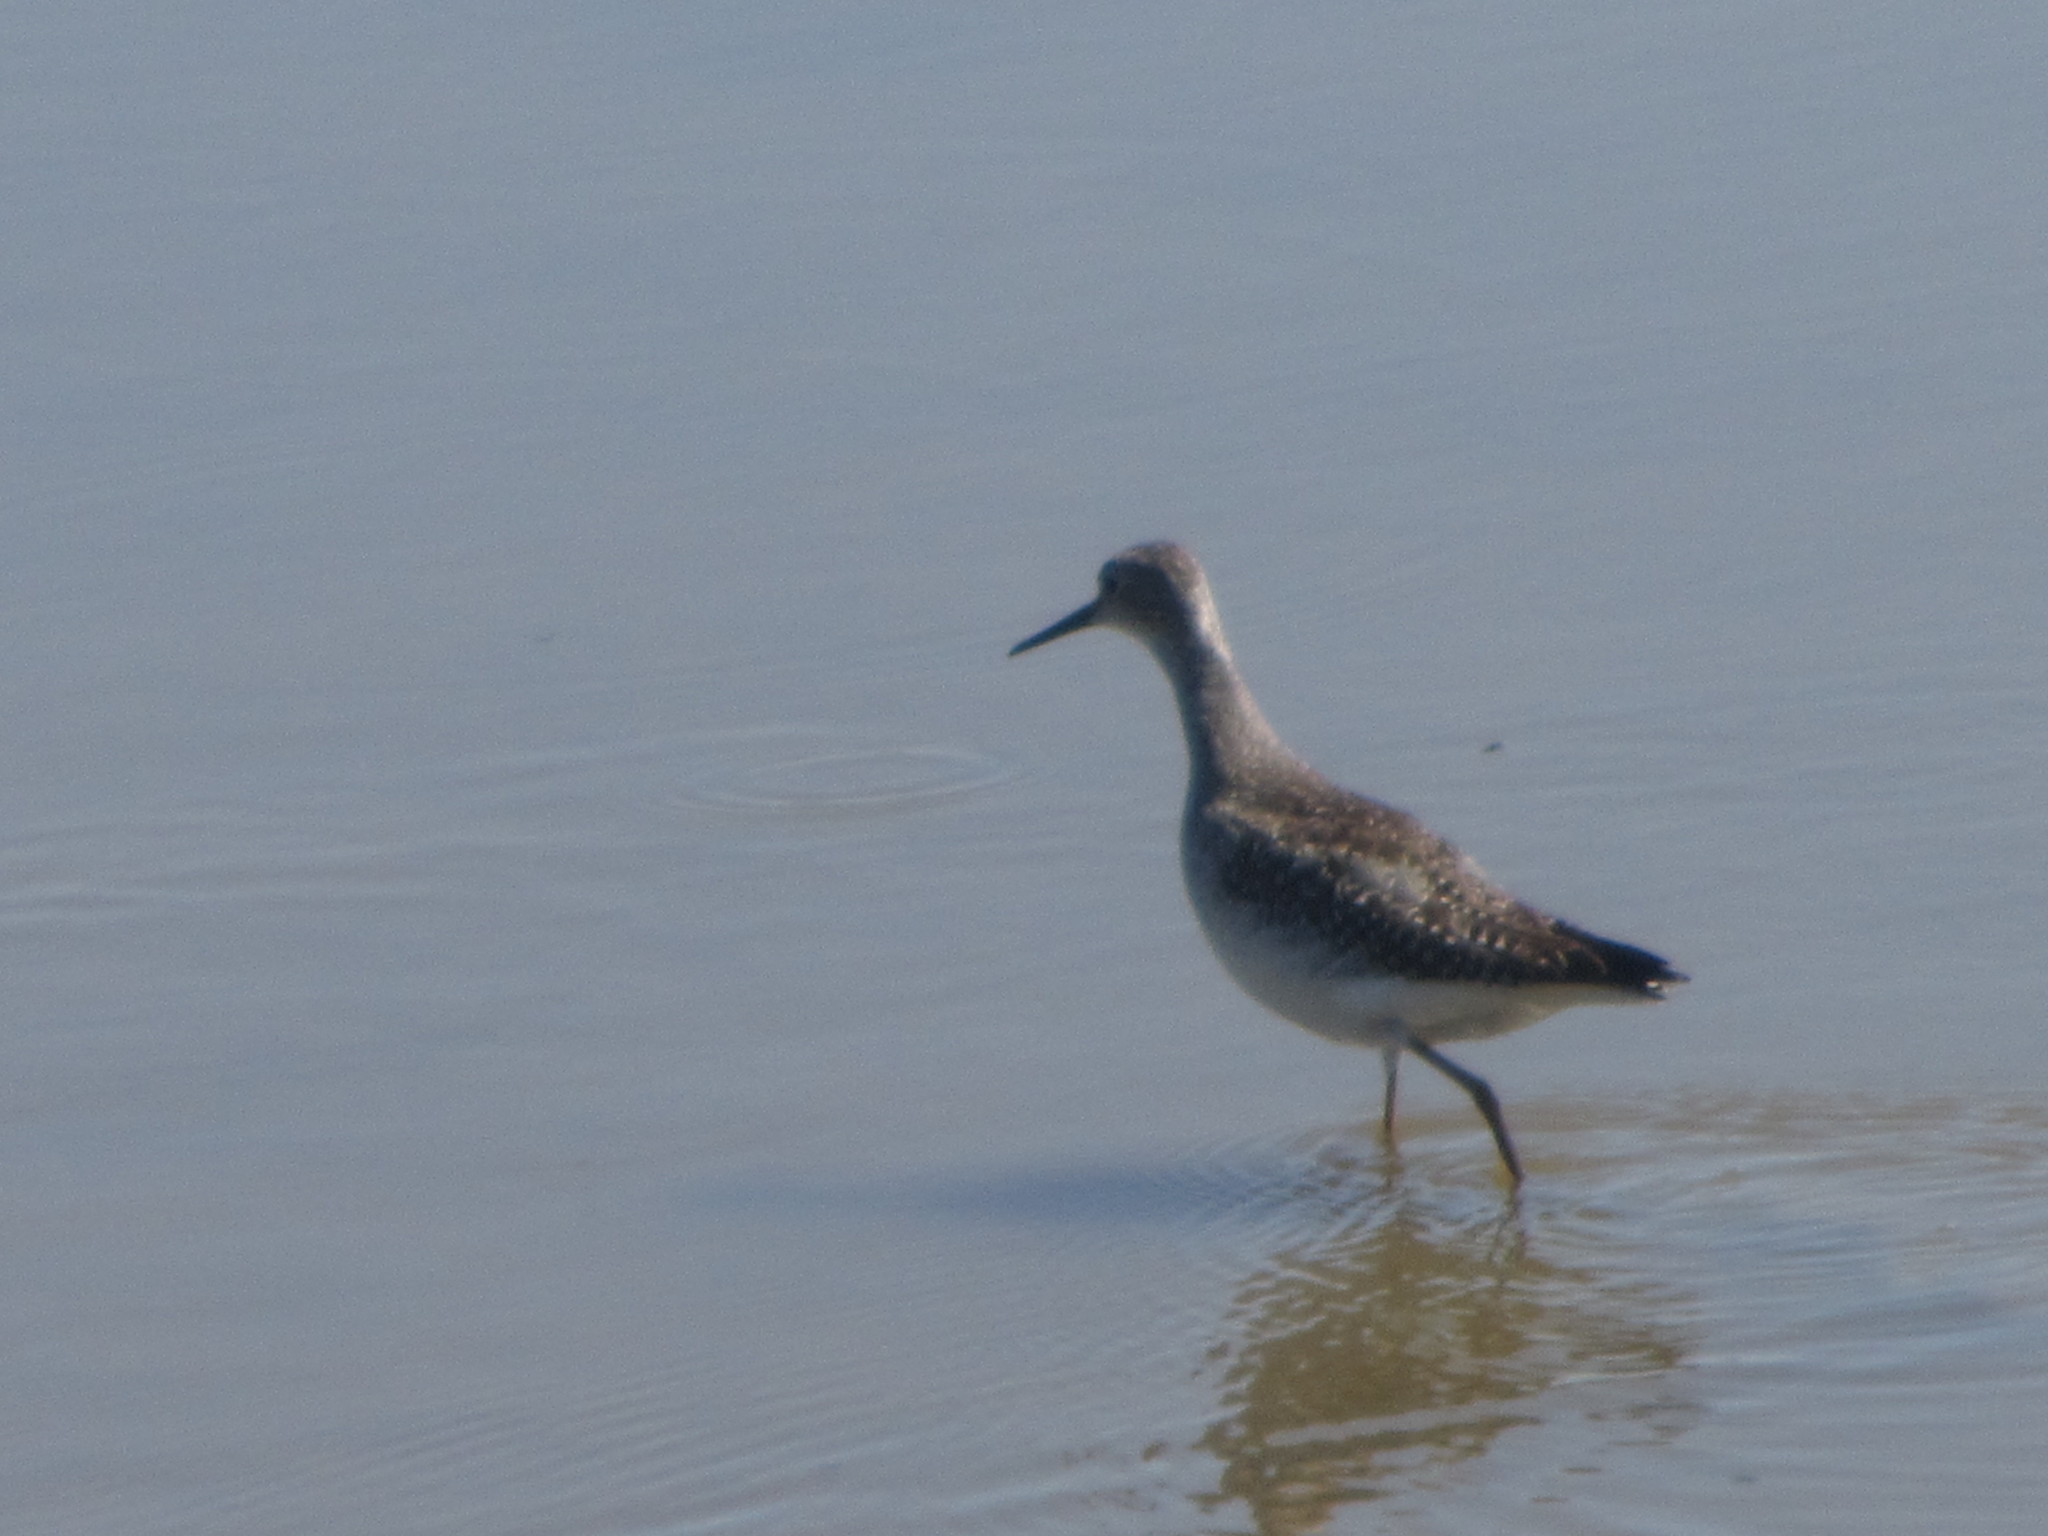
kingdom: Animalia
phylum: Chordata
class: Aves
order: Charadriiformes
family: Scolopacidae
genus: Tringa
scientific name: Tringa melanoleuca
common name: Greater yellowlegs
